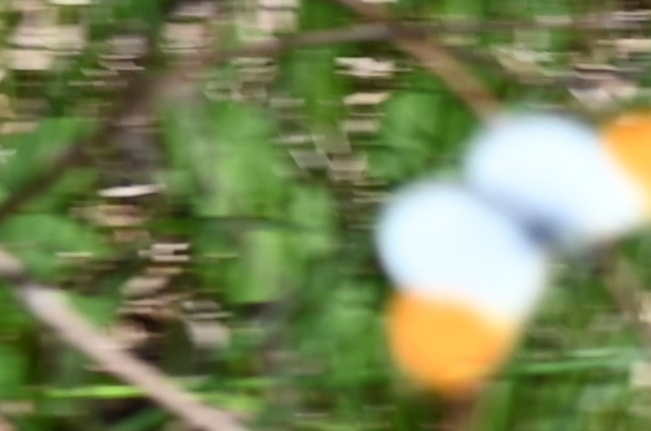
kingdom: Animalia
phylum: Arthropoda
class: Insecta
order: Lepidoptera
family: Pieridae
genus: Anthocharis
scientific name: Anthocharis cardamines
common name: Orange-tip
